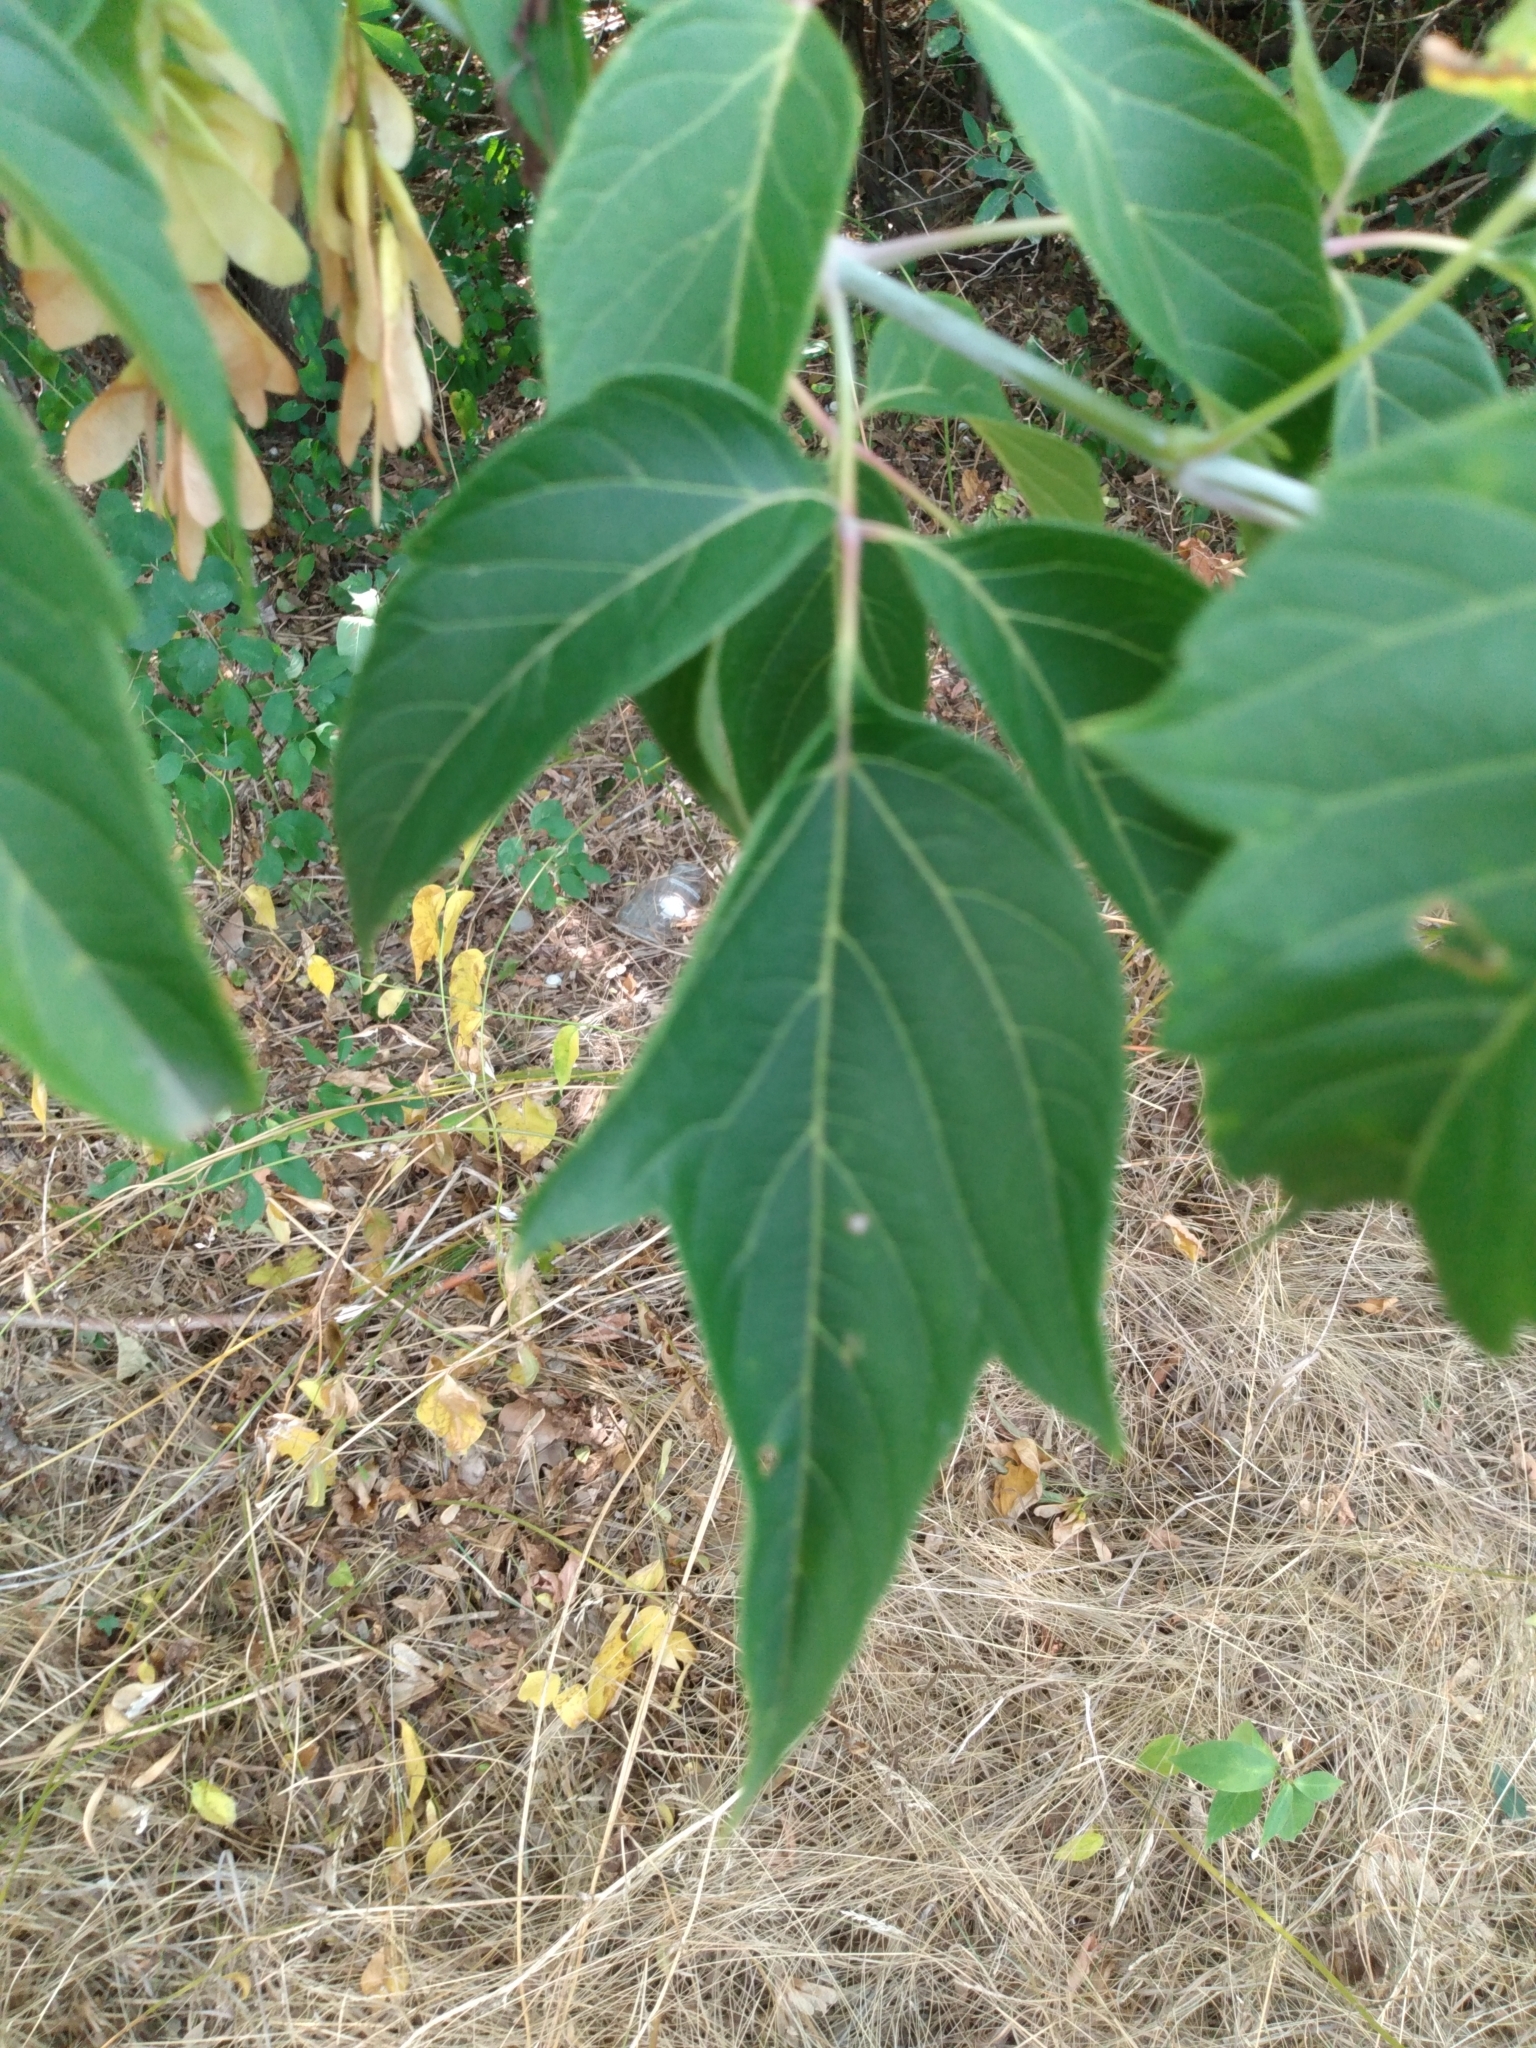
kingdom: Plantae
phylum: Tracheophyta
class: Magnoliopsida
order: Sapindales
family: Sapindaceae
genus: Acer
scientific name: Acer negundo
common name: Ashleaf maple
